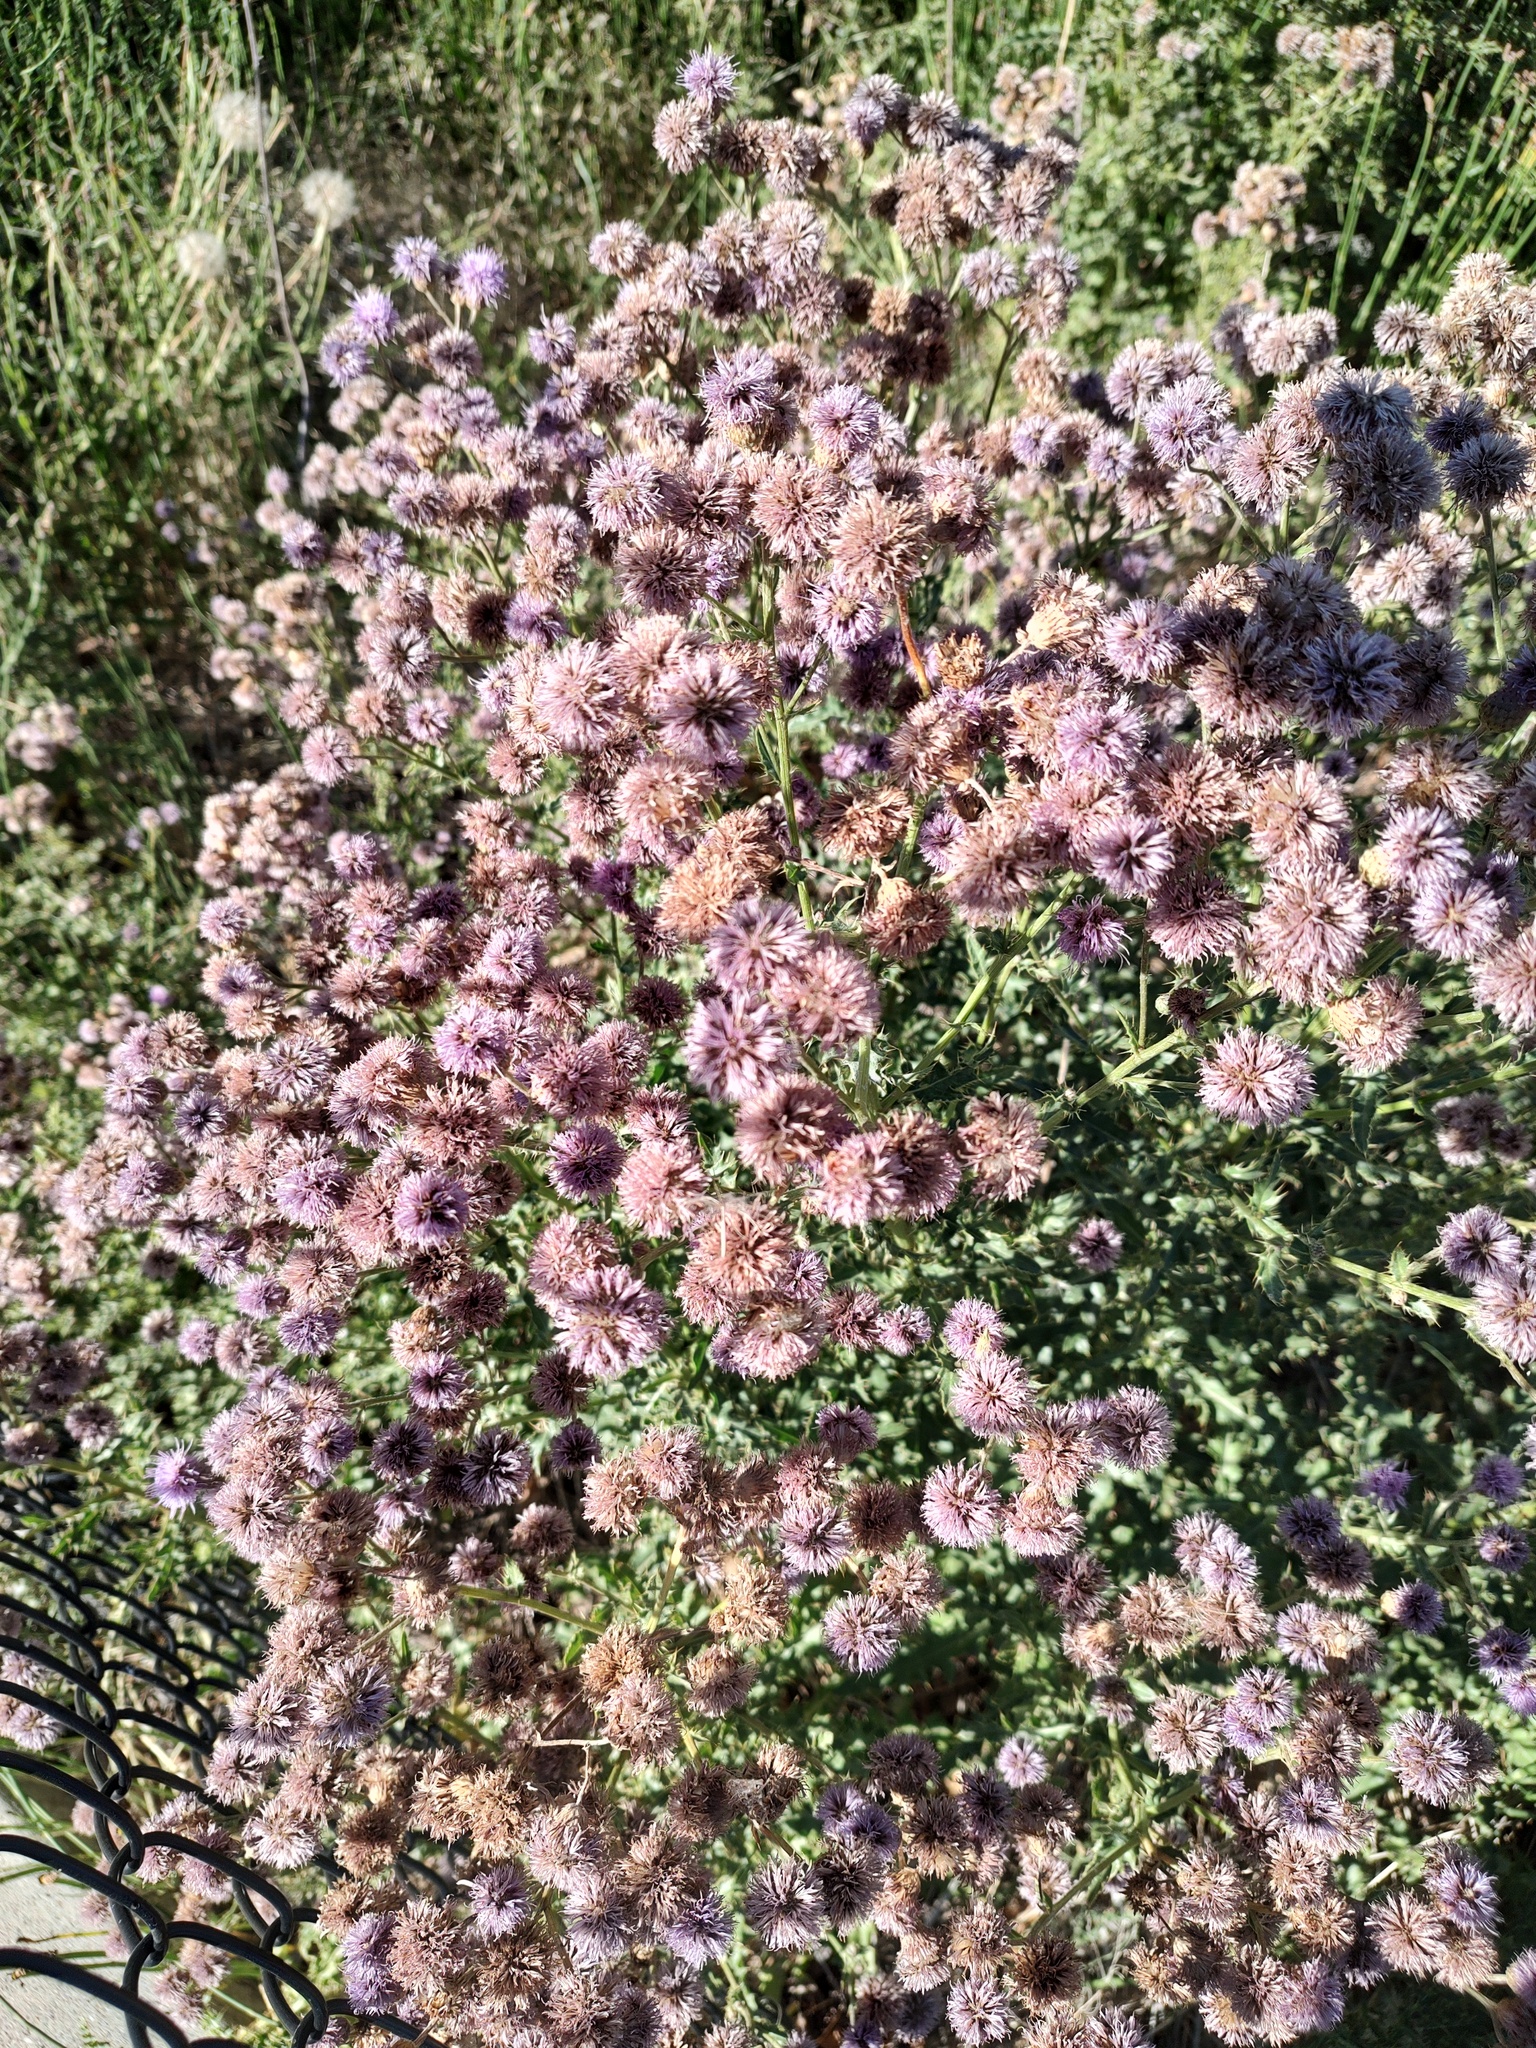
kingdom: Plantae
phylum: Tracheophyta
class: Magnoliopsida
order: Asterales
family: Asteraceae
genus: Cirsium
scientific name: Cirsium arvense
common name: Creeping thistle
